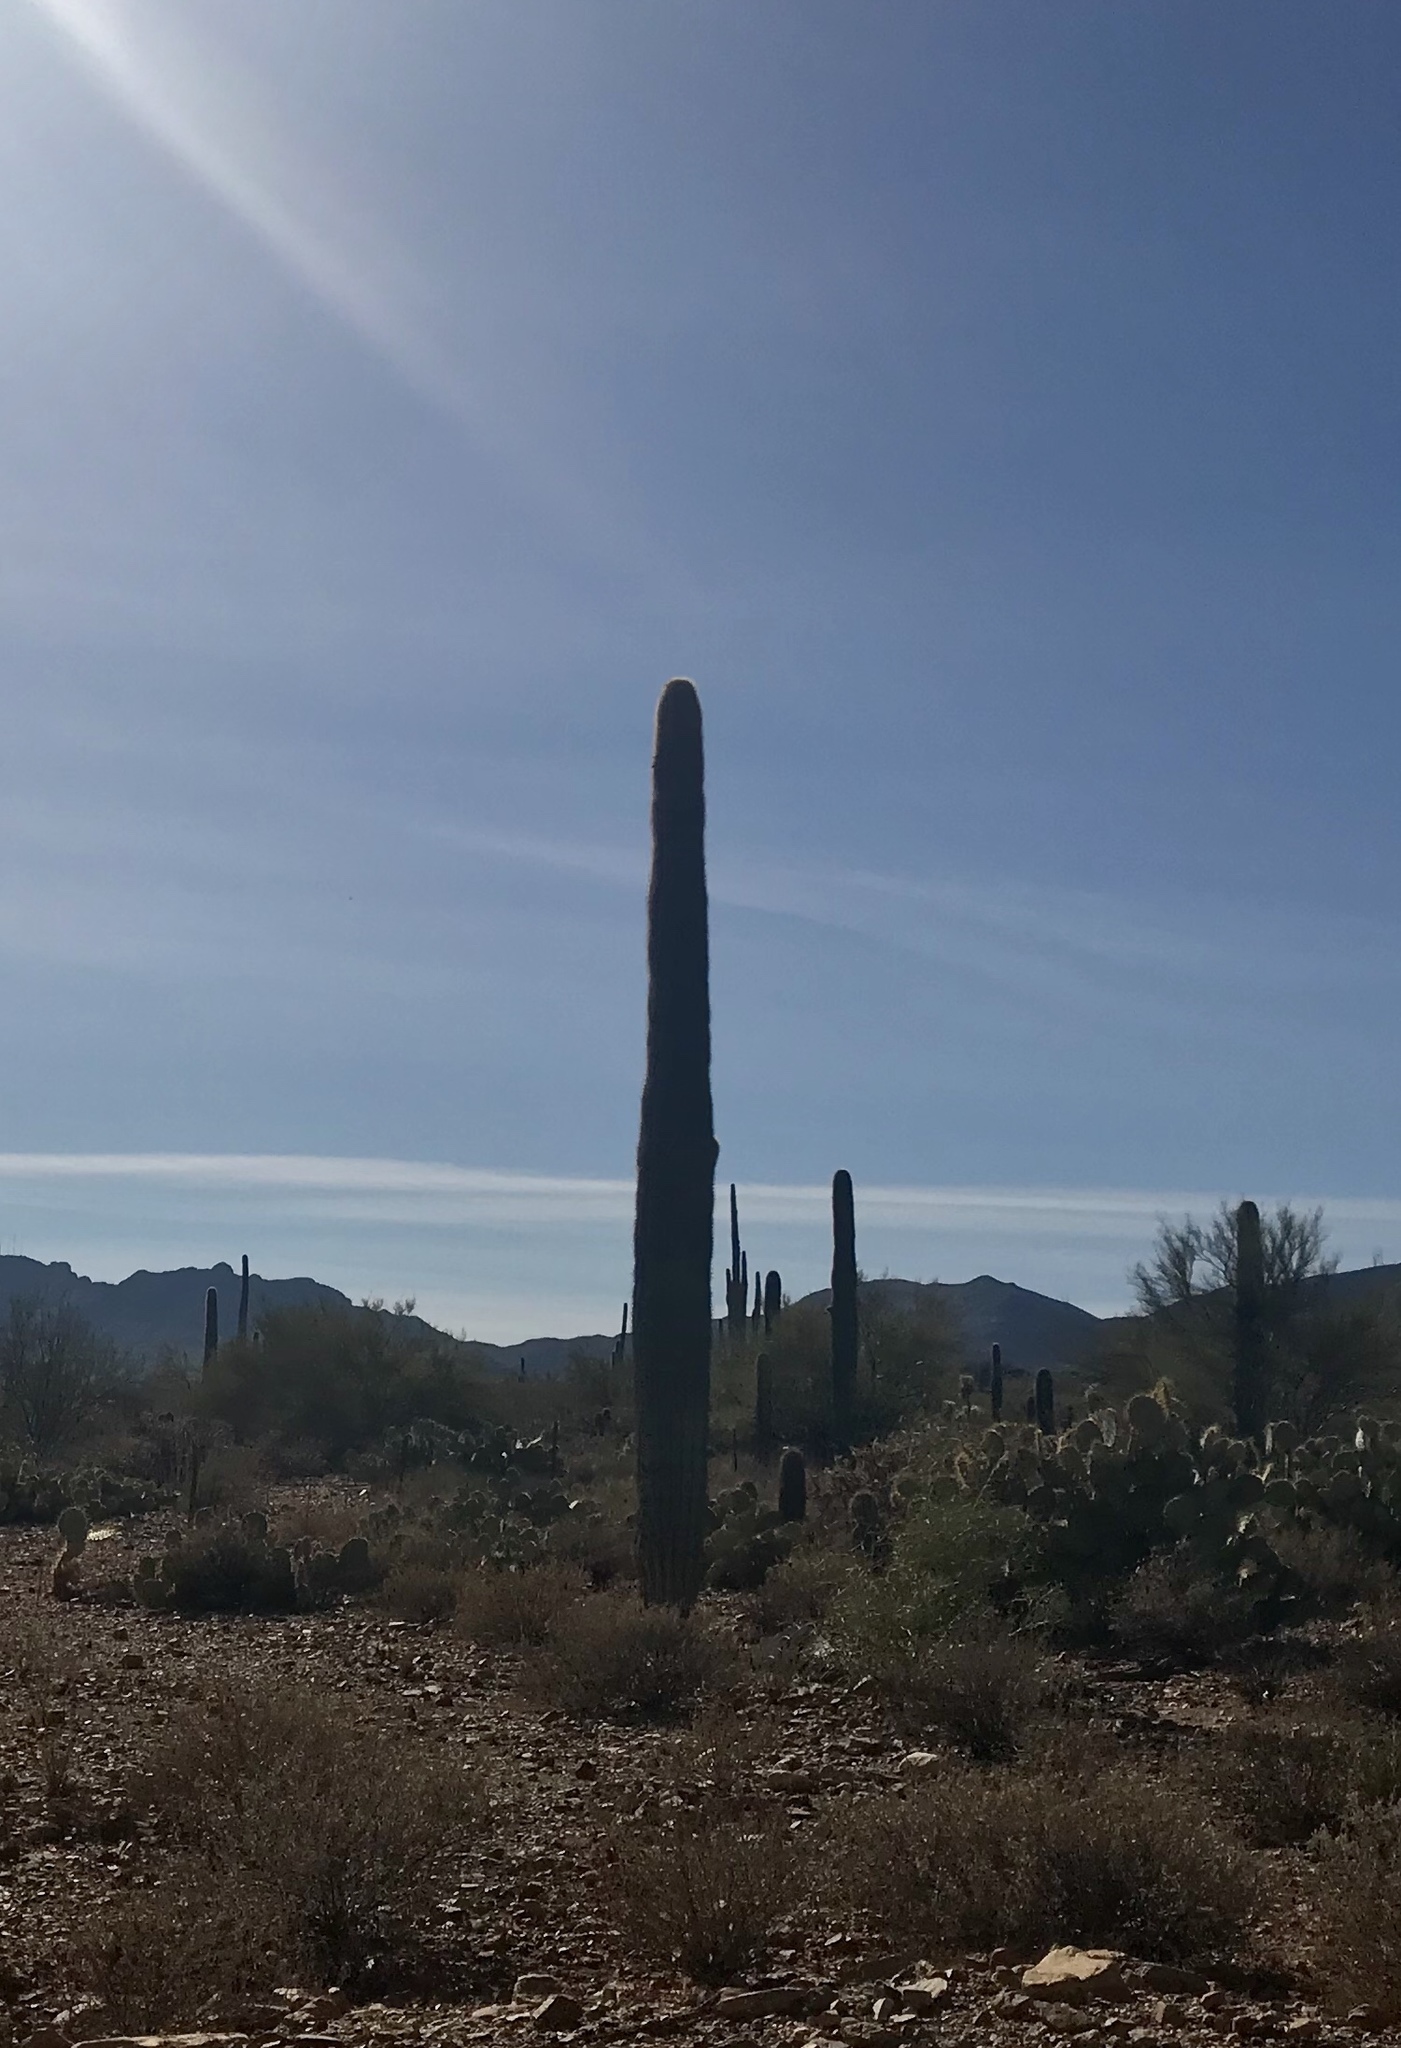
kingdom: Plantae
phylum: Tracheophyta
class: Magnoliopsida
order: Caryophyllales
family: Cactaceae
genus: Carnegiea
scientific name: Carnegiea gigantea
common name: Saguaro
